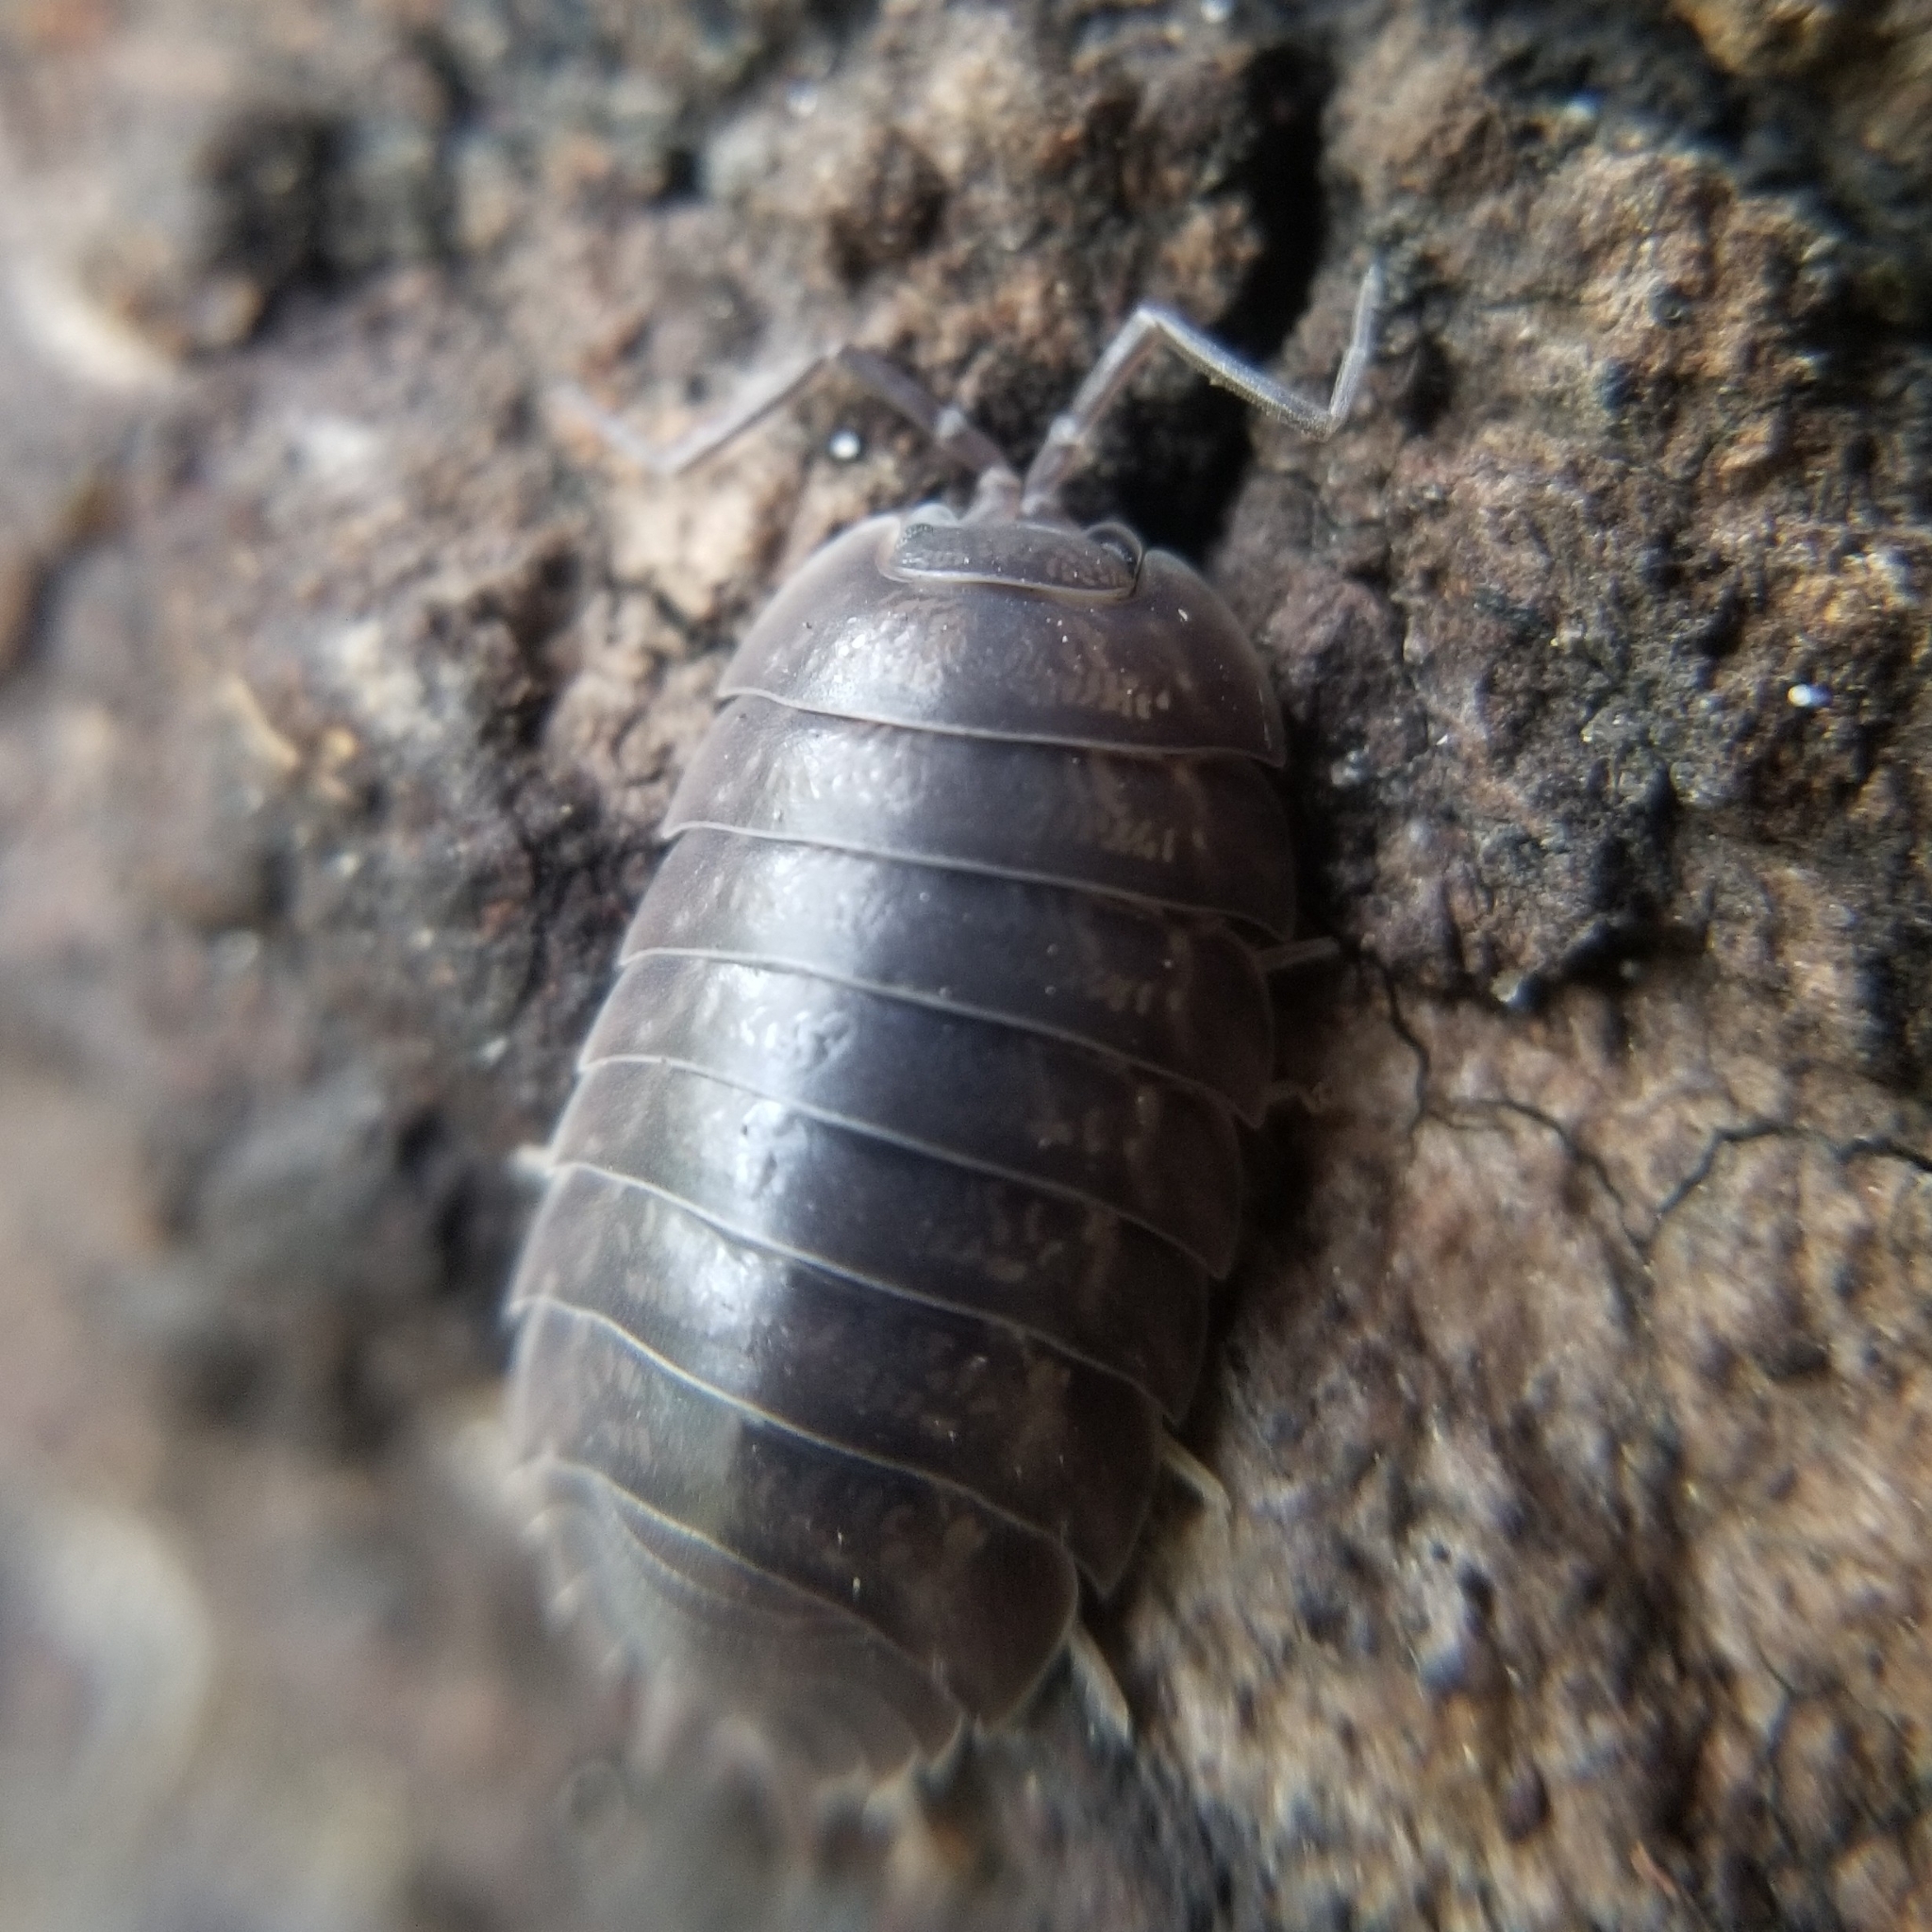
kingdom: Animalia
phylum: Arthropoda
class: Malacostraca
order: Isopoda
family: Porcellionidae
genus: Porcellio
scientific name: Porcellio laevis
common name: Swift woodlouse
